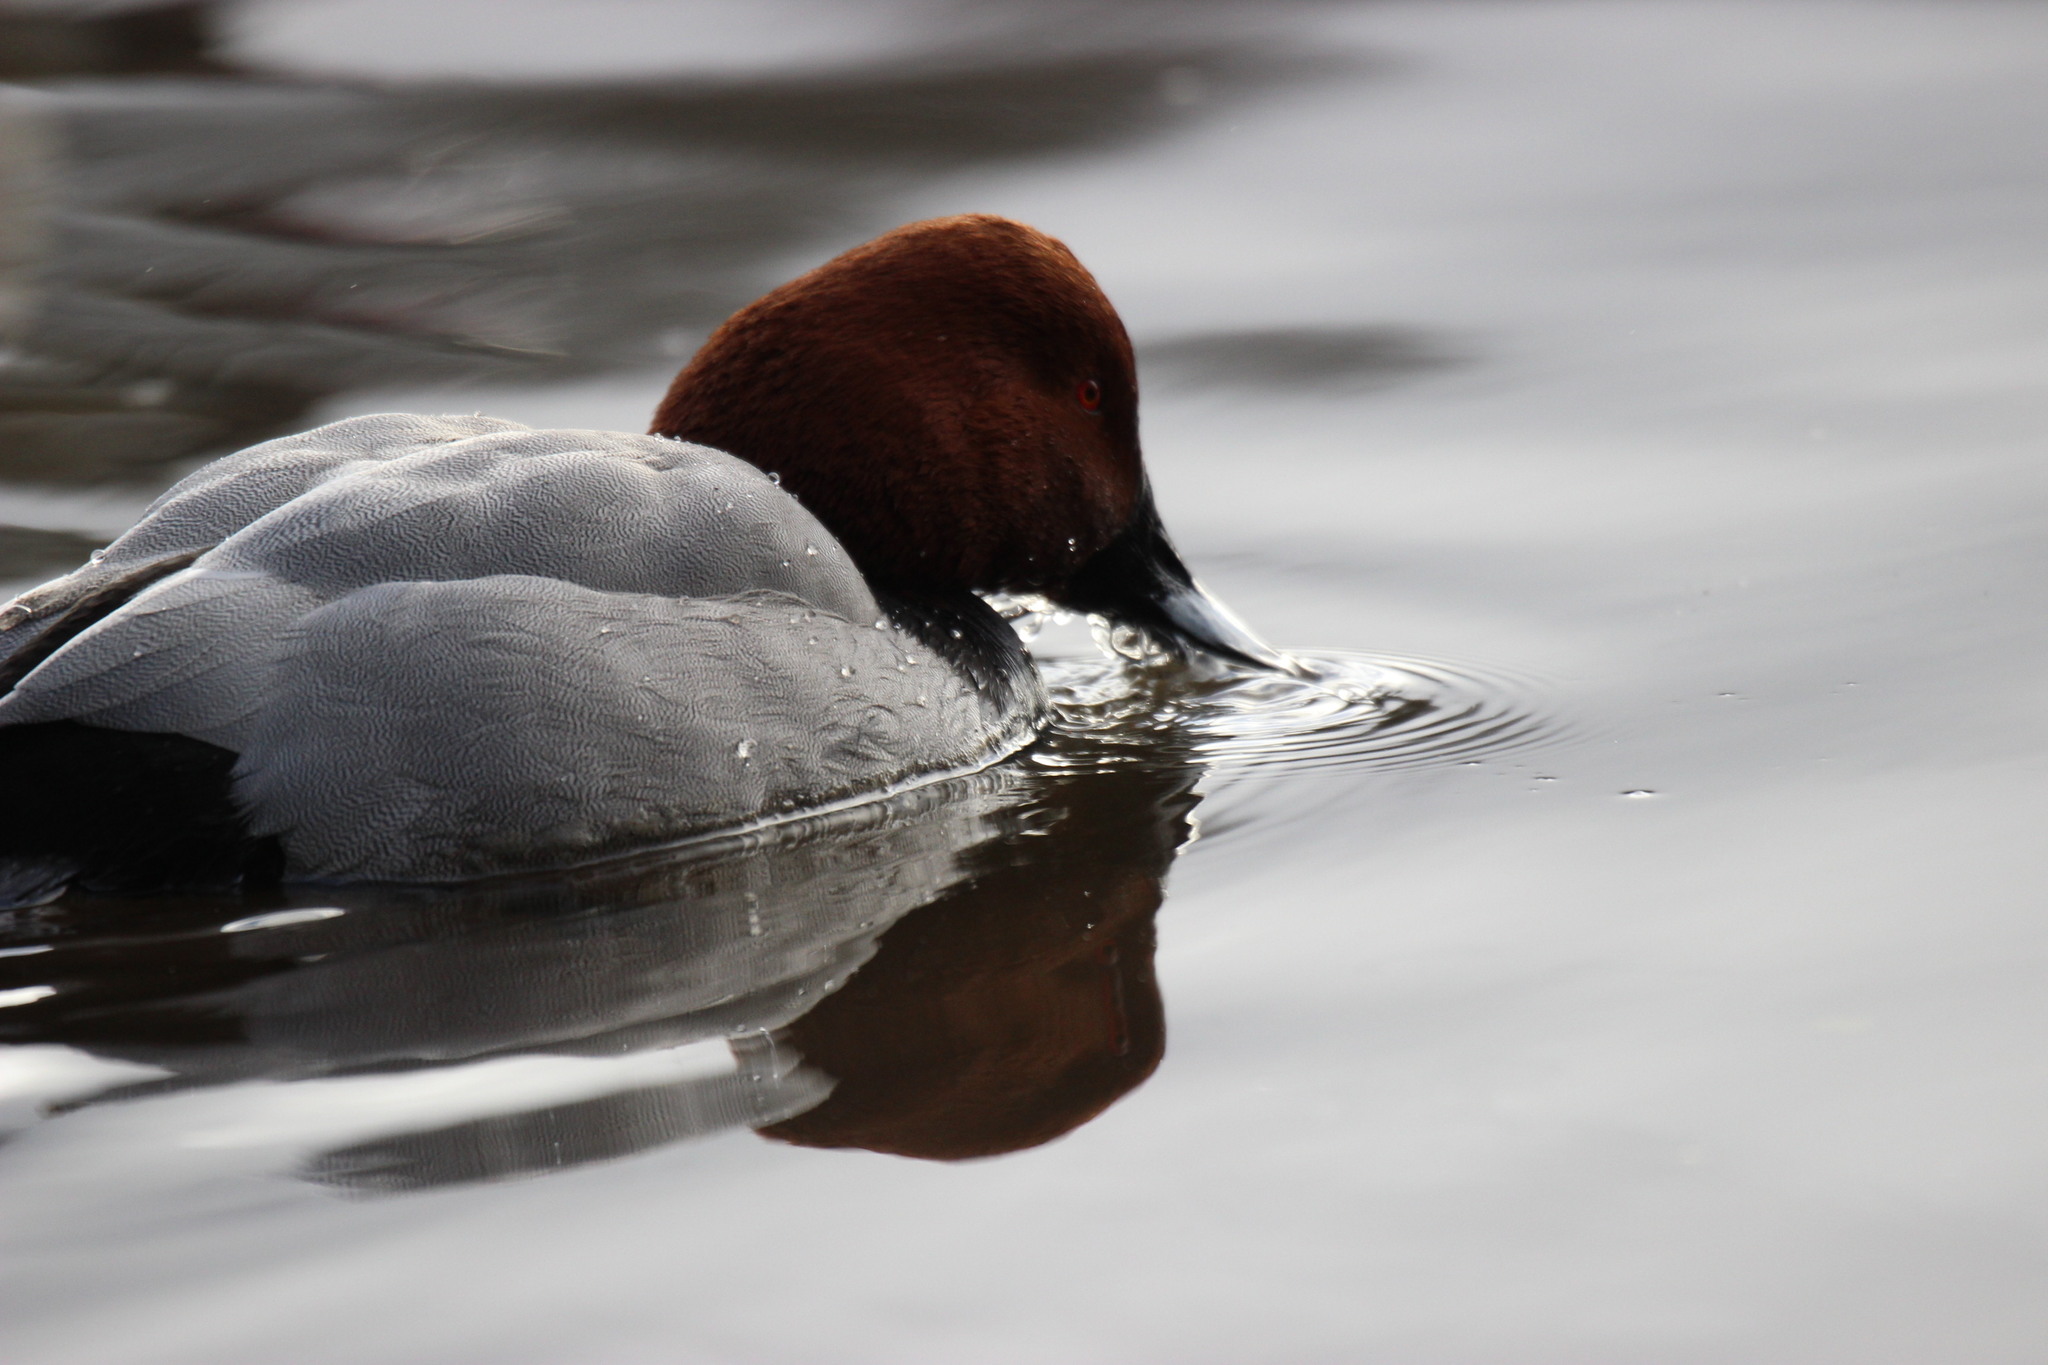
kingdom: Animalia
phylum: Chordata
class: Aves
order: Anseriformes
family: Anatidae
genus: Aythya
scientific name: Aythya ferina
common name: Common pochard
